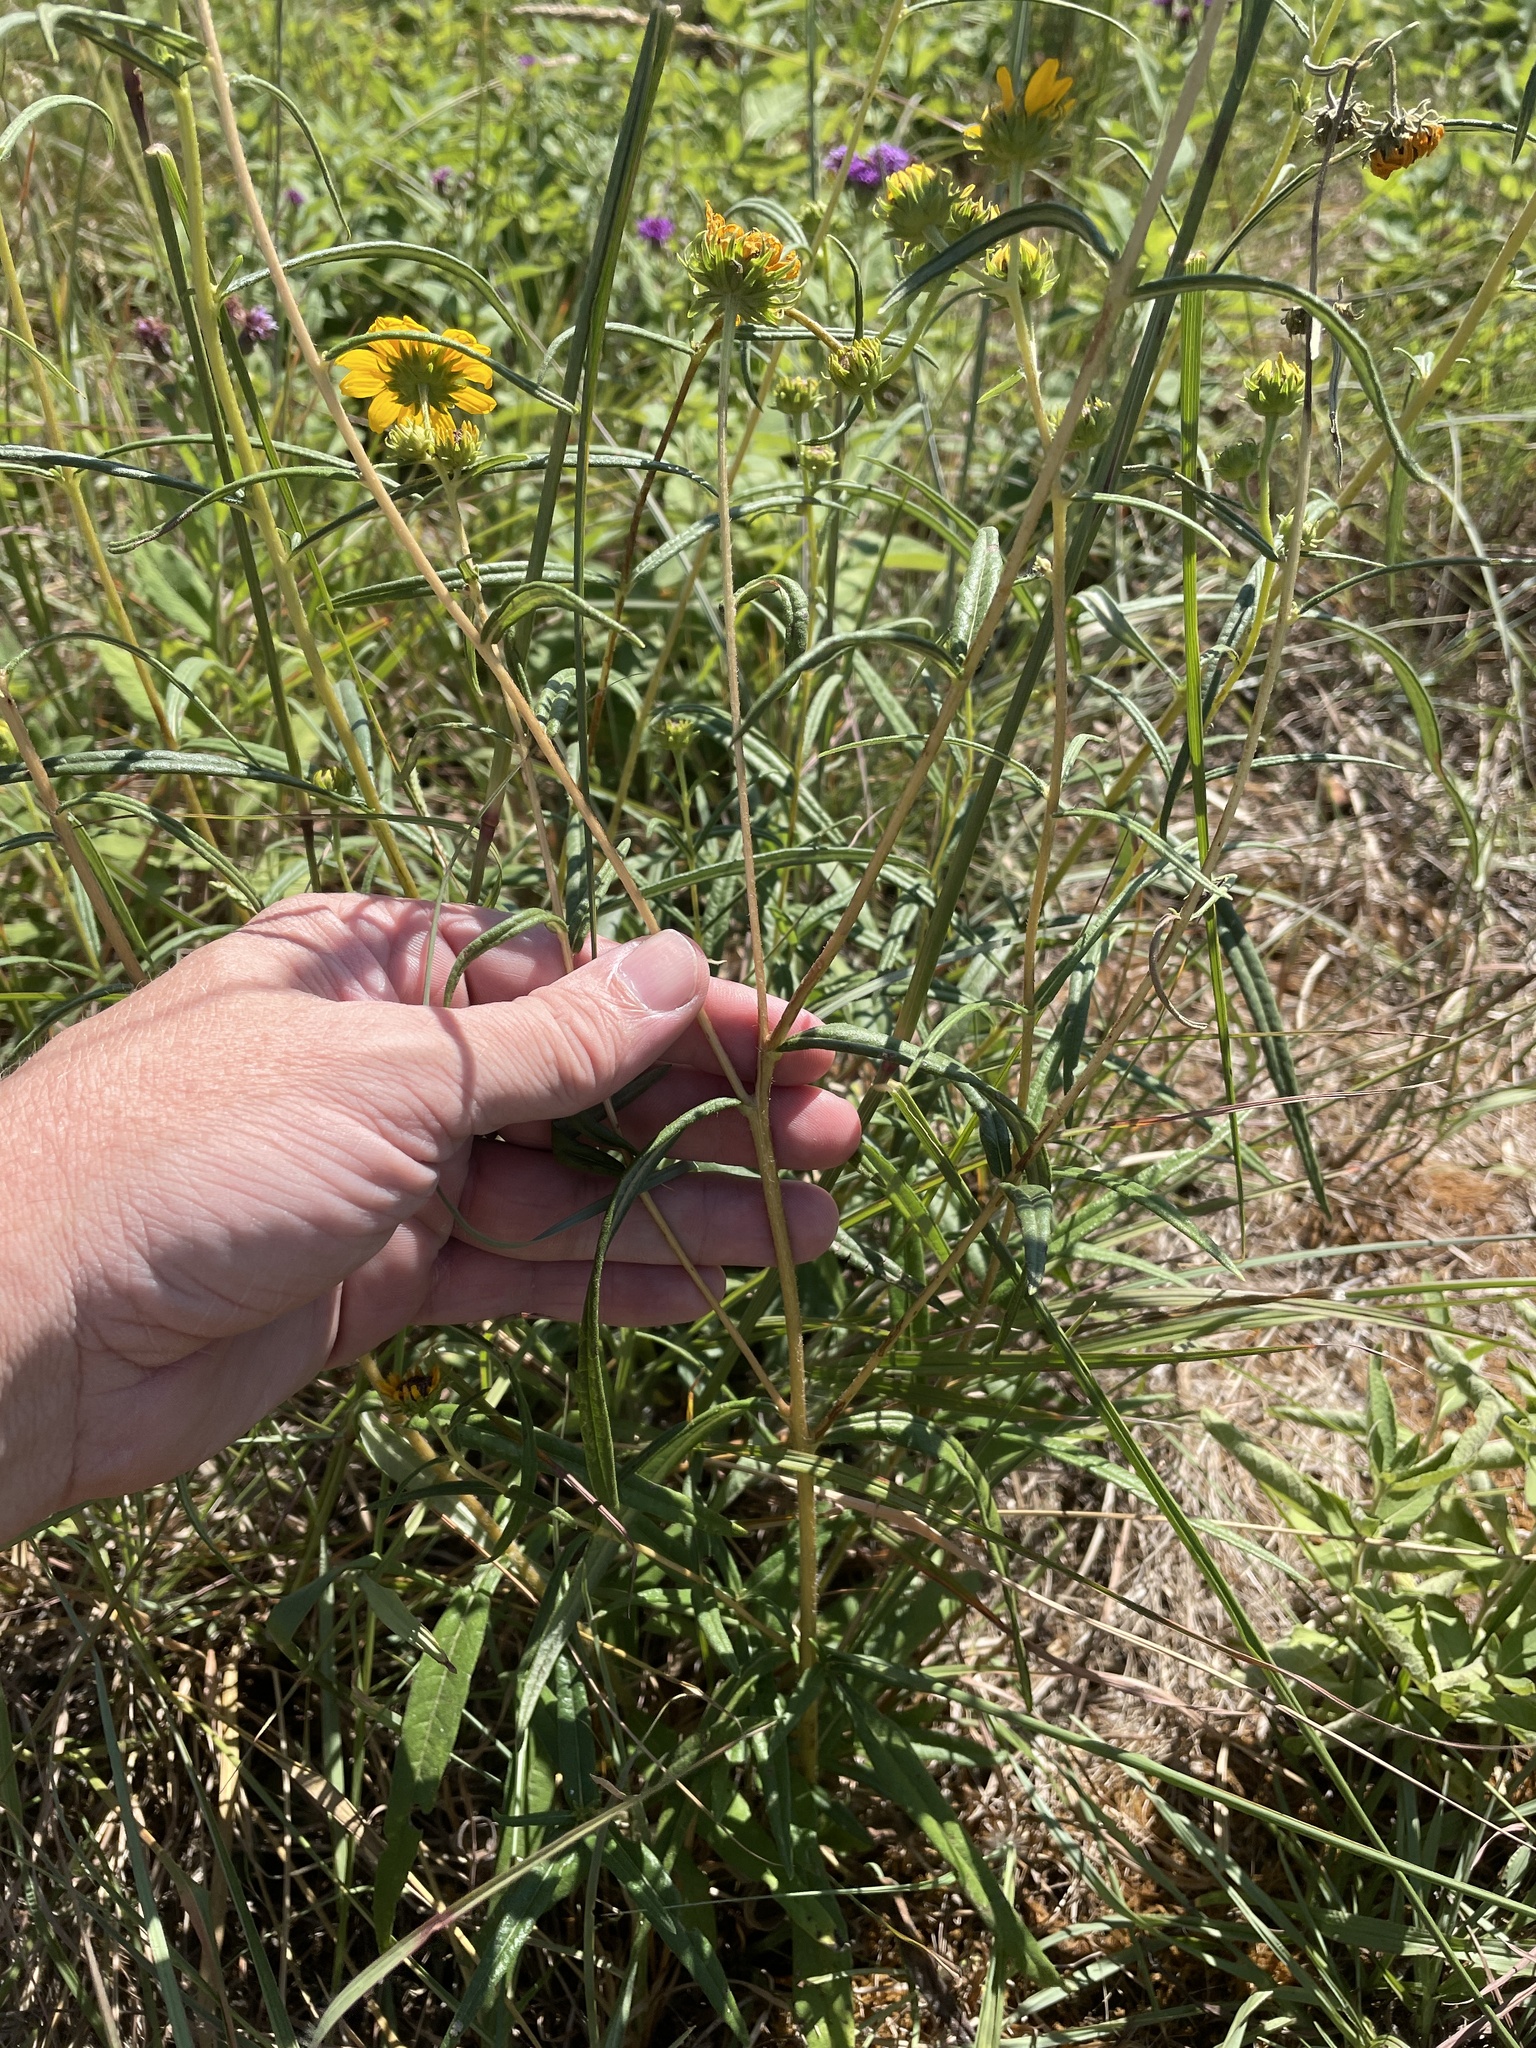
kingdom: Plantae
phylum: Tracheophyta
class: Magnoliopsida
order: Asterales
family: Asteraceae
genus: Helianthus
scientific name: Helianthus angustifolius
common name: Swamp sunflower
